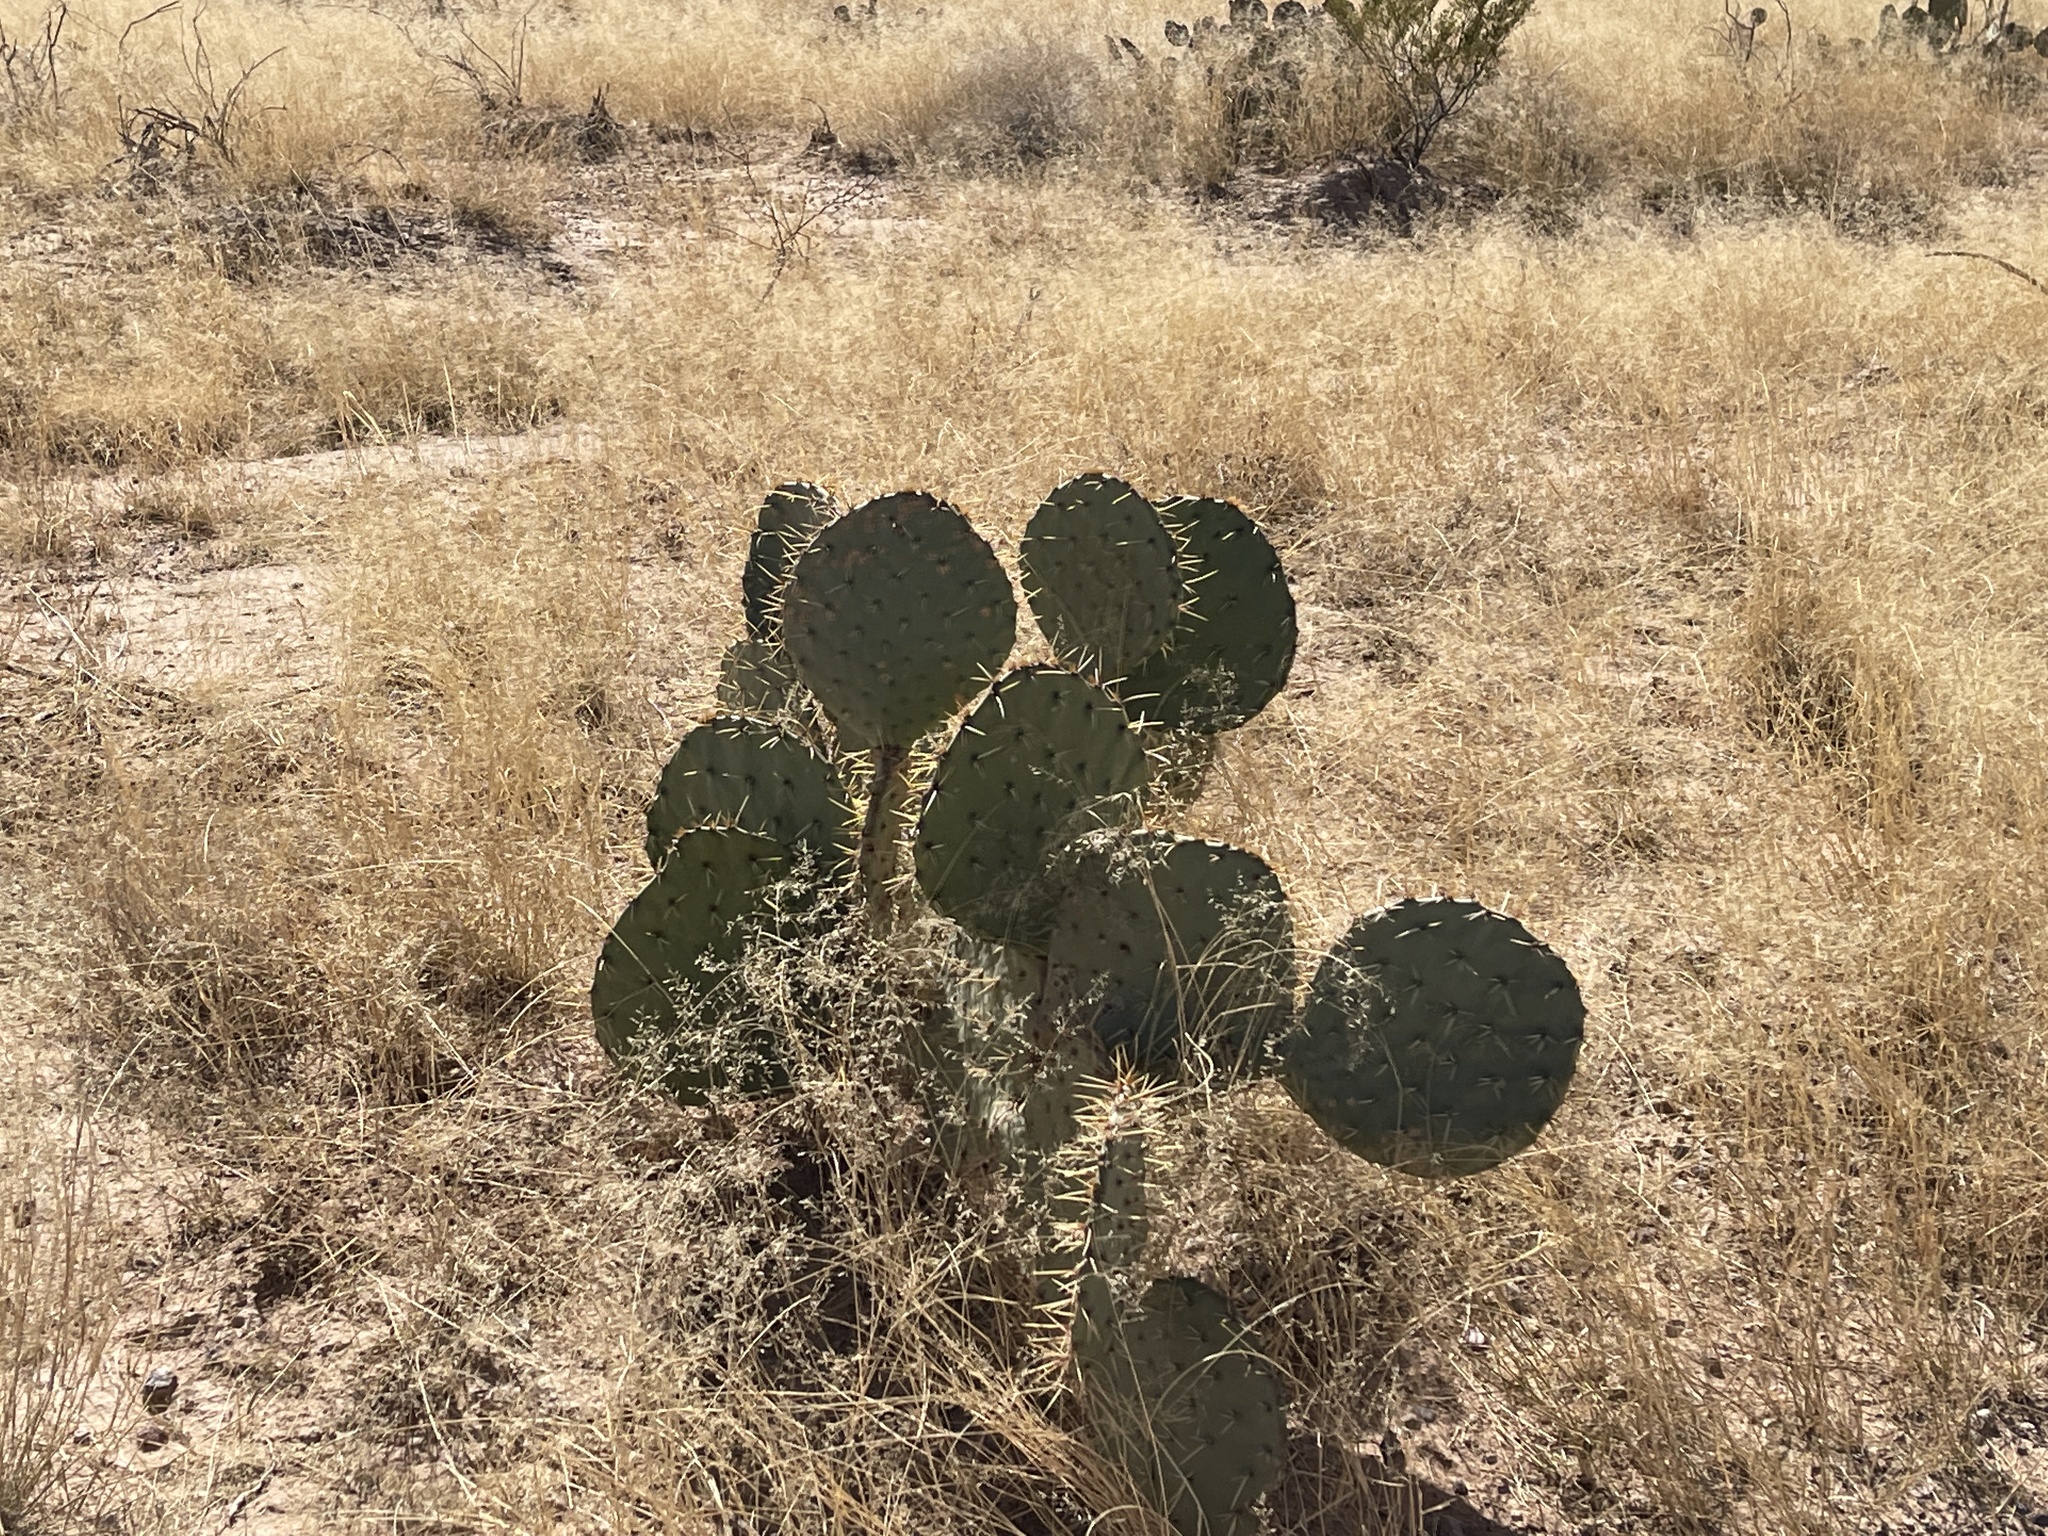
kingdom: Plantae
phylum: Tracheophyta
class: Magnoliopsida
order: Caryophyllales
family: Cactaceae
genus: Opuntia
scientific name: Opuntia engelmannii
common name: Cactus-apple
